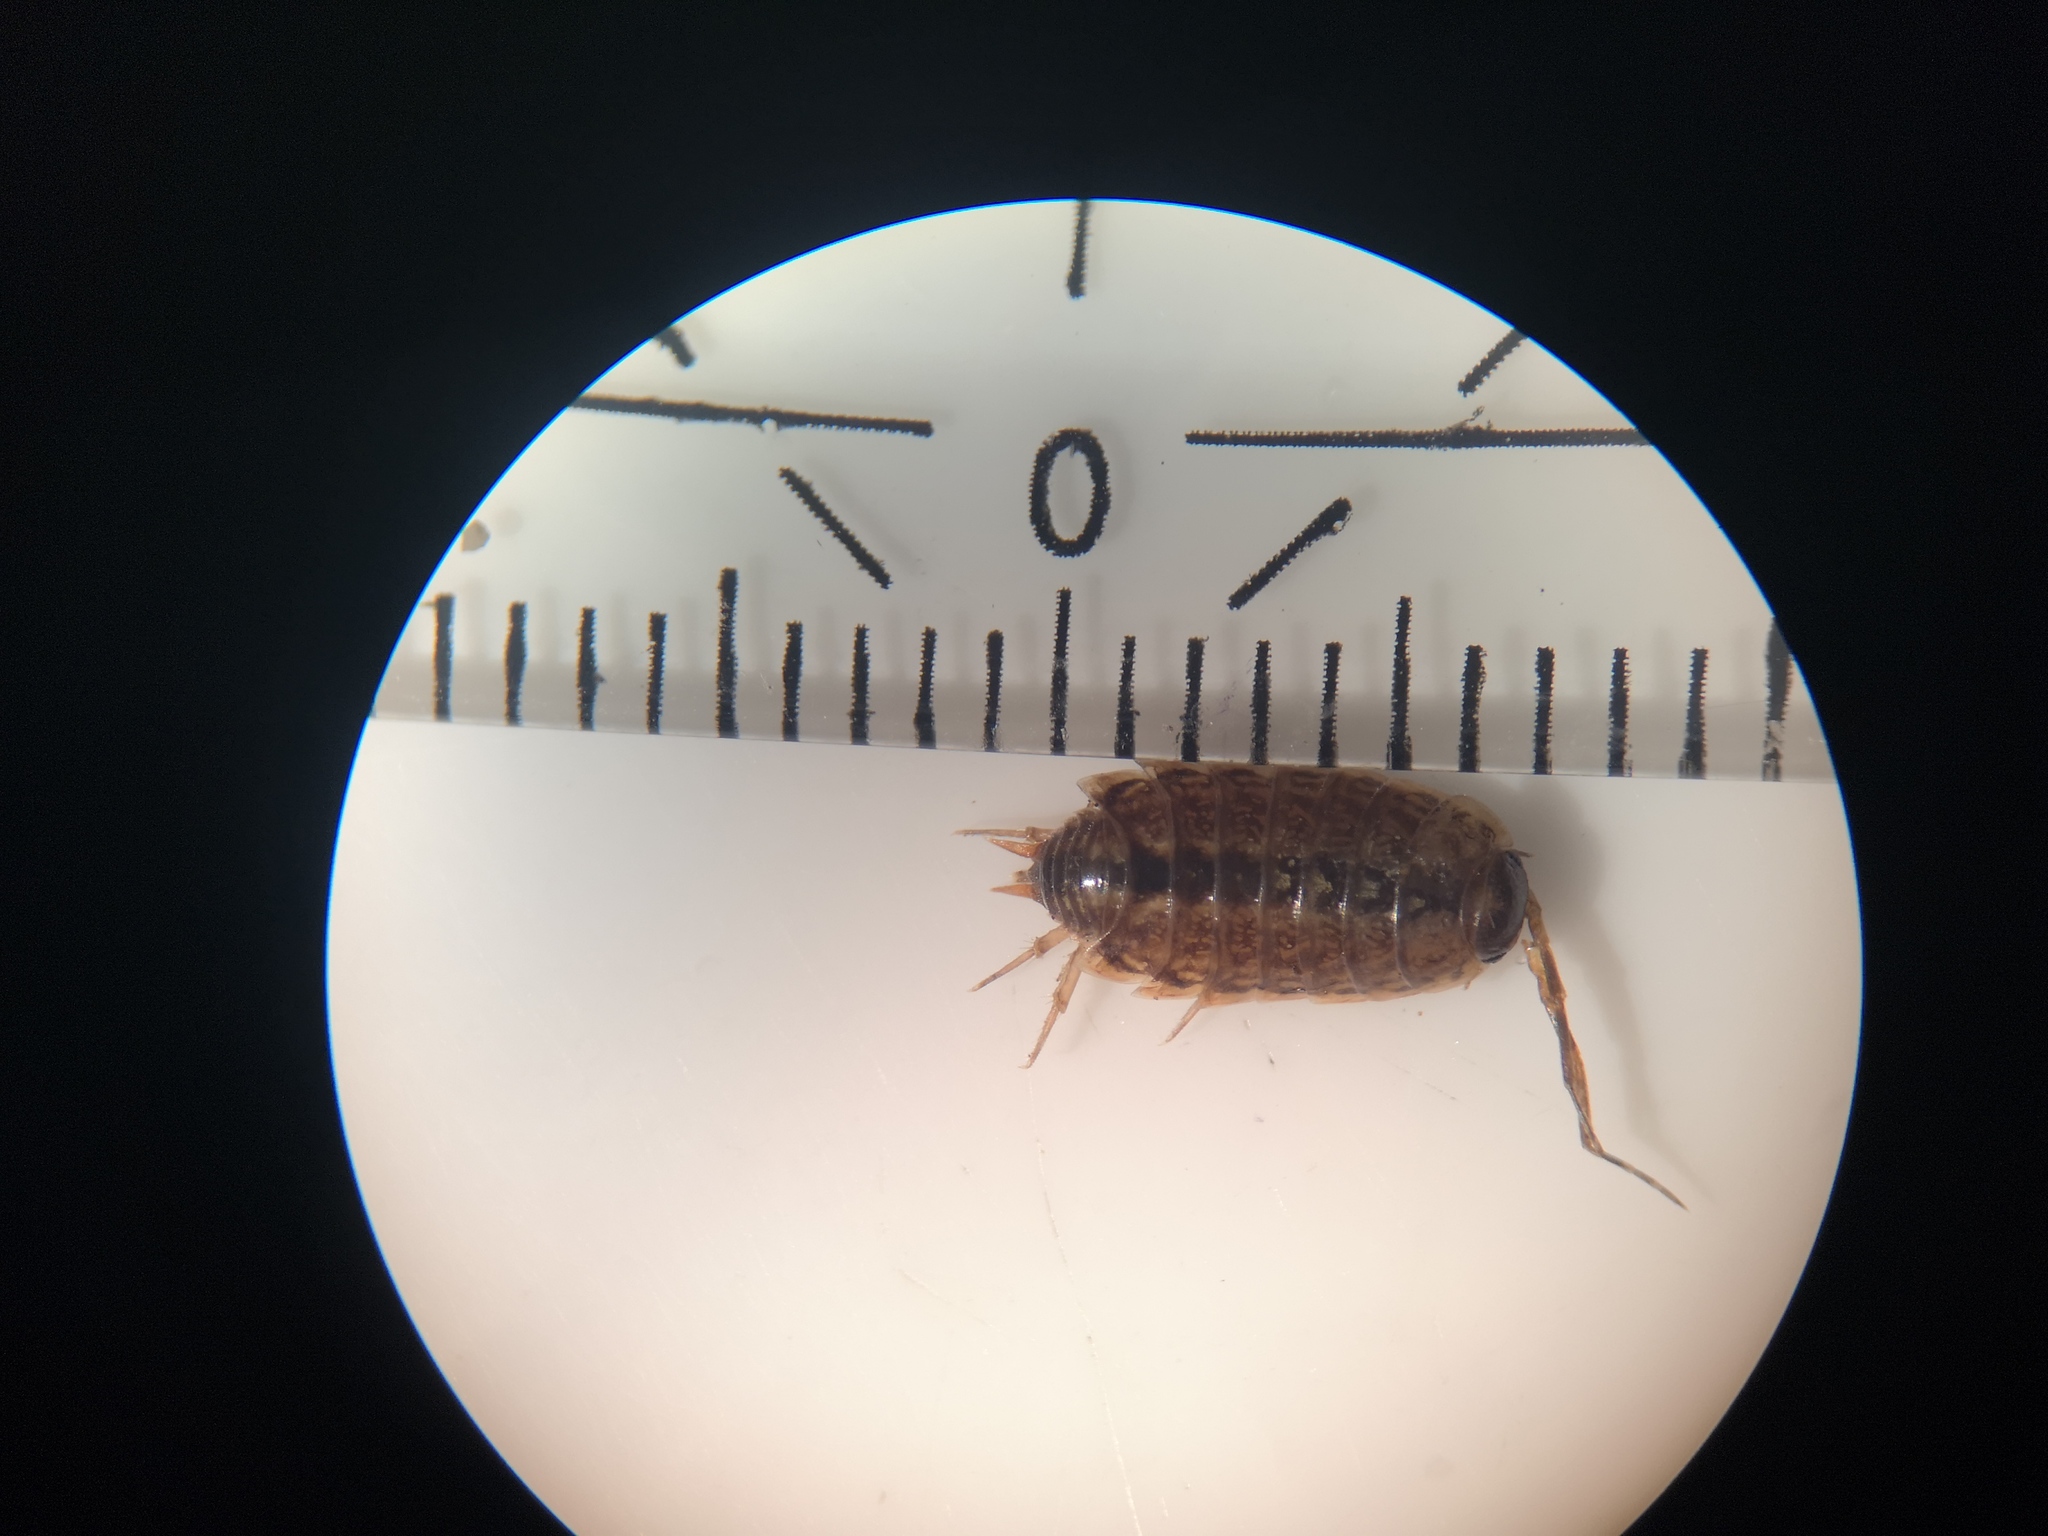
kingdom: Animalia
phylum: Arthropoda
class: Malacostraca
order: Isopoda
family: Philosciidae
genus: Philoscia
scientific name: Philoscia muscorum
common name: Common striped woodlouse
